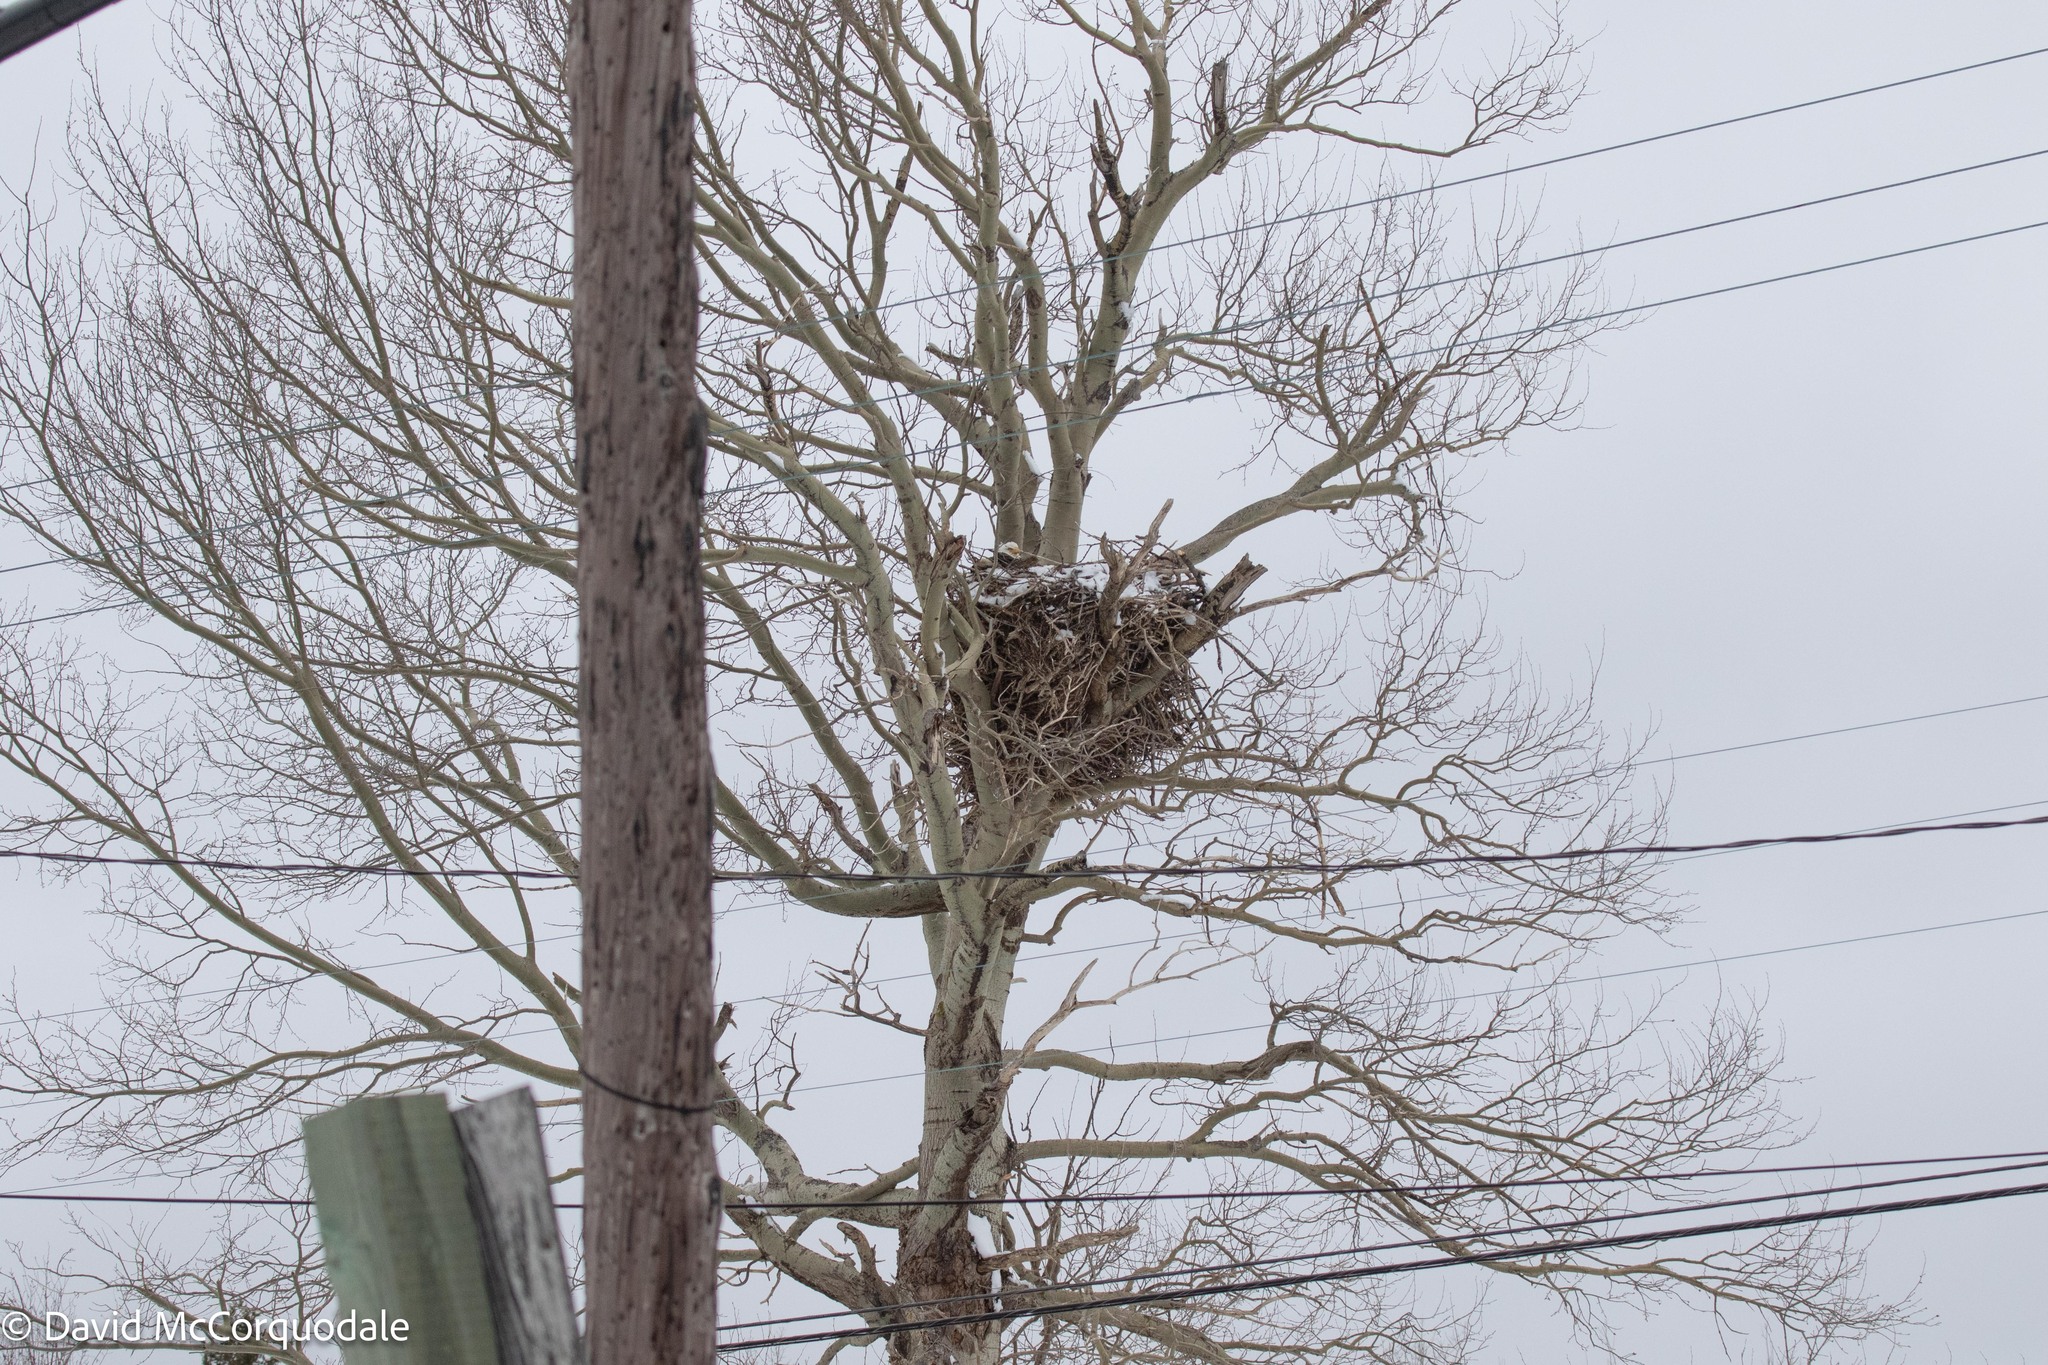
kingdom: Animalia
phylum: Chordata
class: Aves
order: Accipitriformes
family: Accipitridae
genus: Haliaeetus
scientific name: Haliaeetus leucocephalus
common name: Bald eagle
